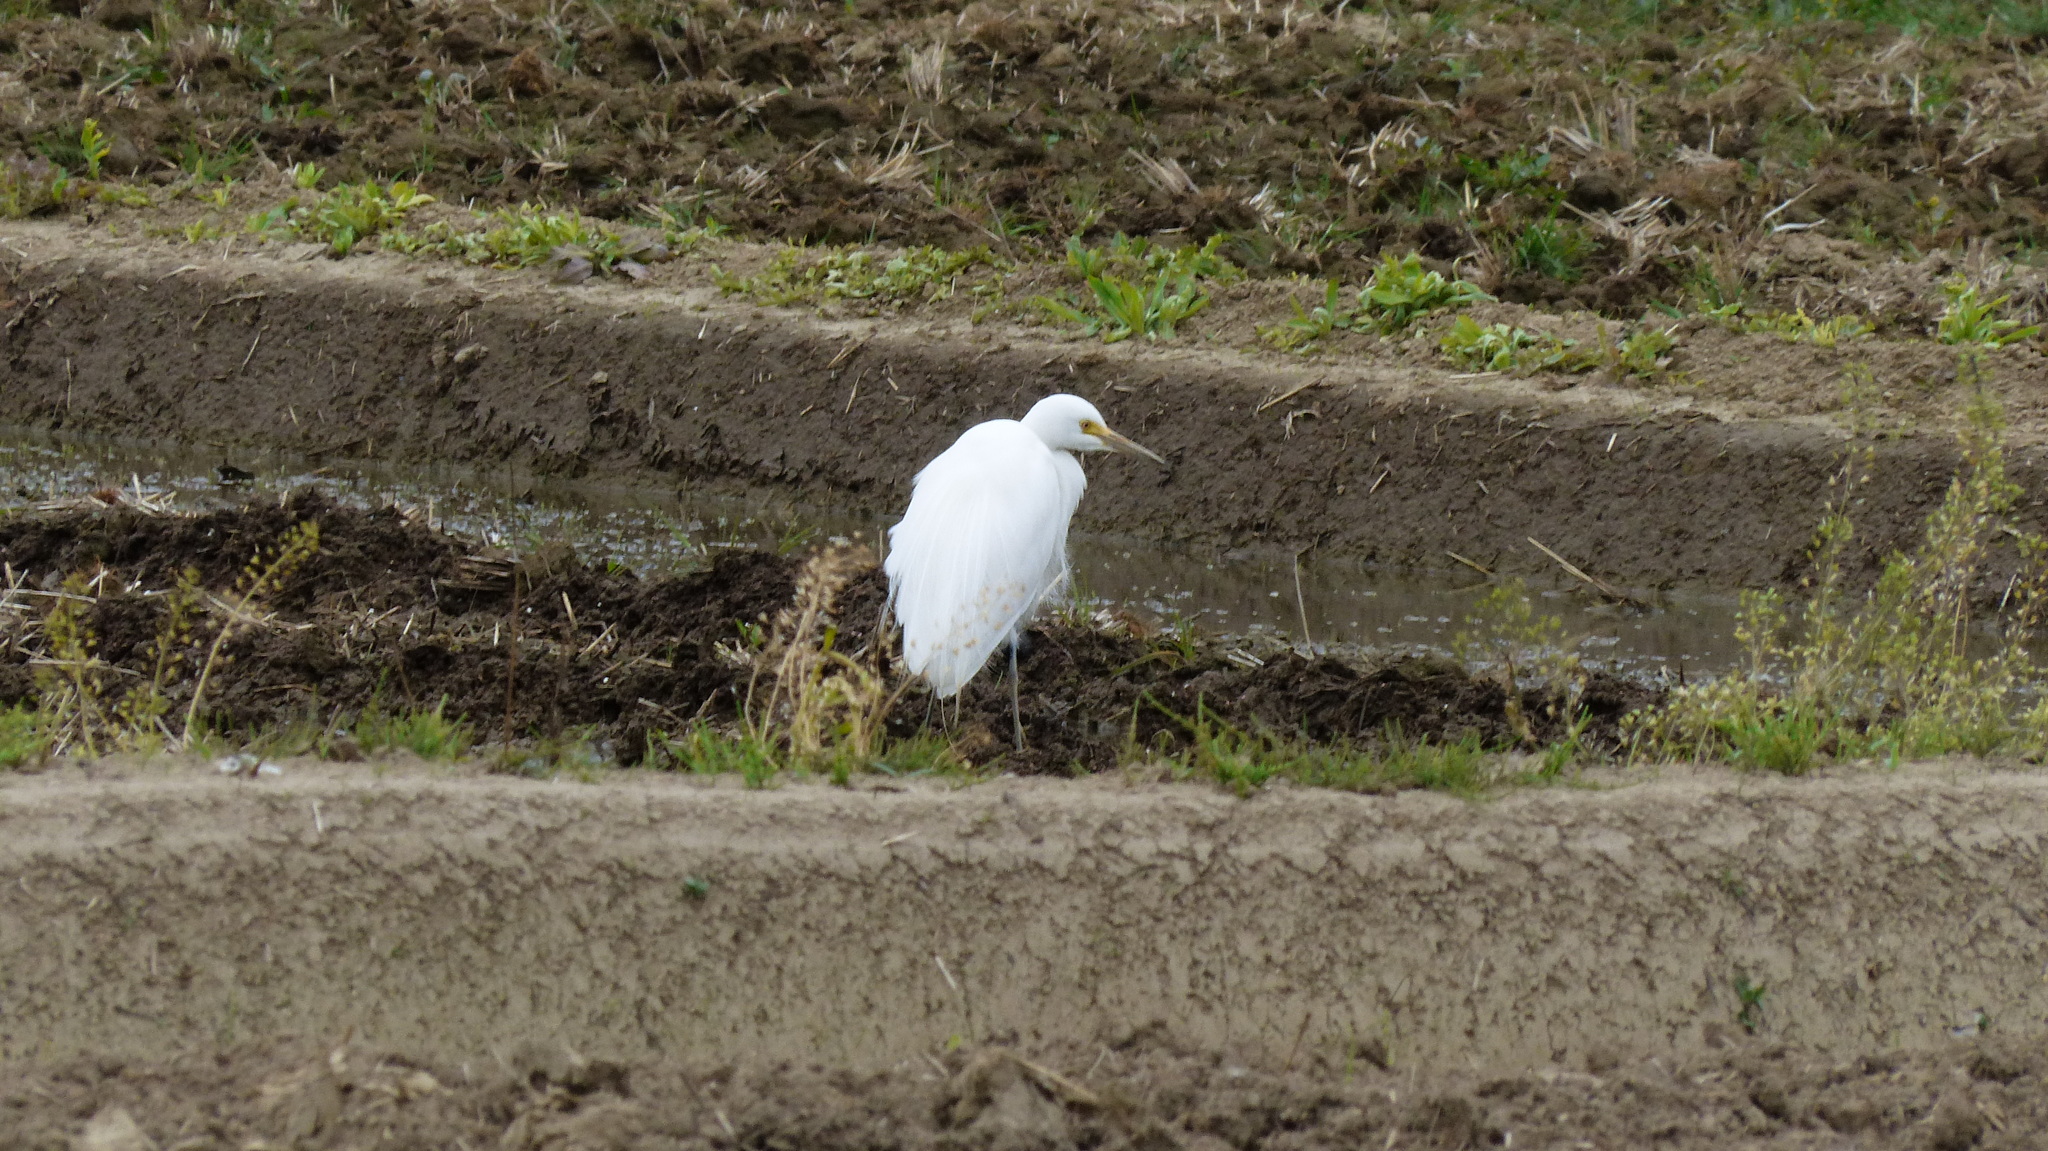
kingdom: Animalia
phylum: Chordata
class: Aves
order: Pelecaniformes
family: Ardeidae
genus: Egretta
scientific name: Egretta intermedia
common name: Intermediate egret
